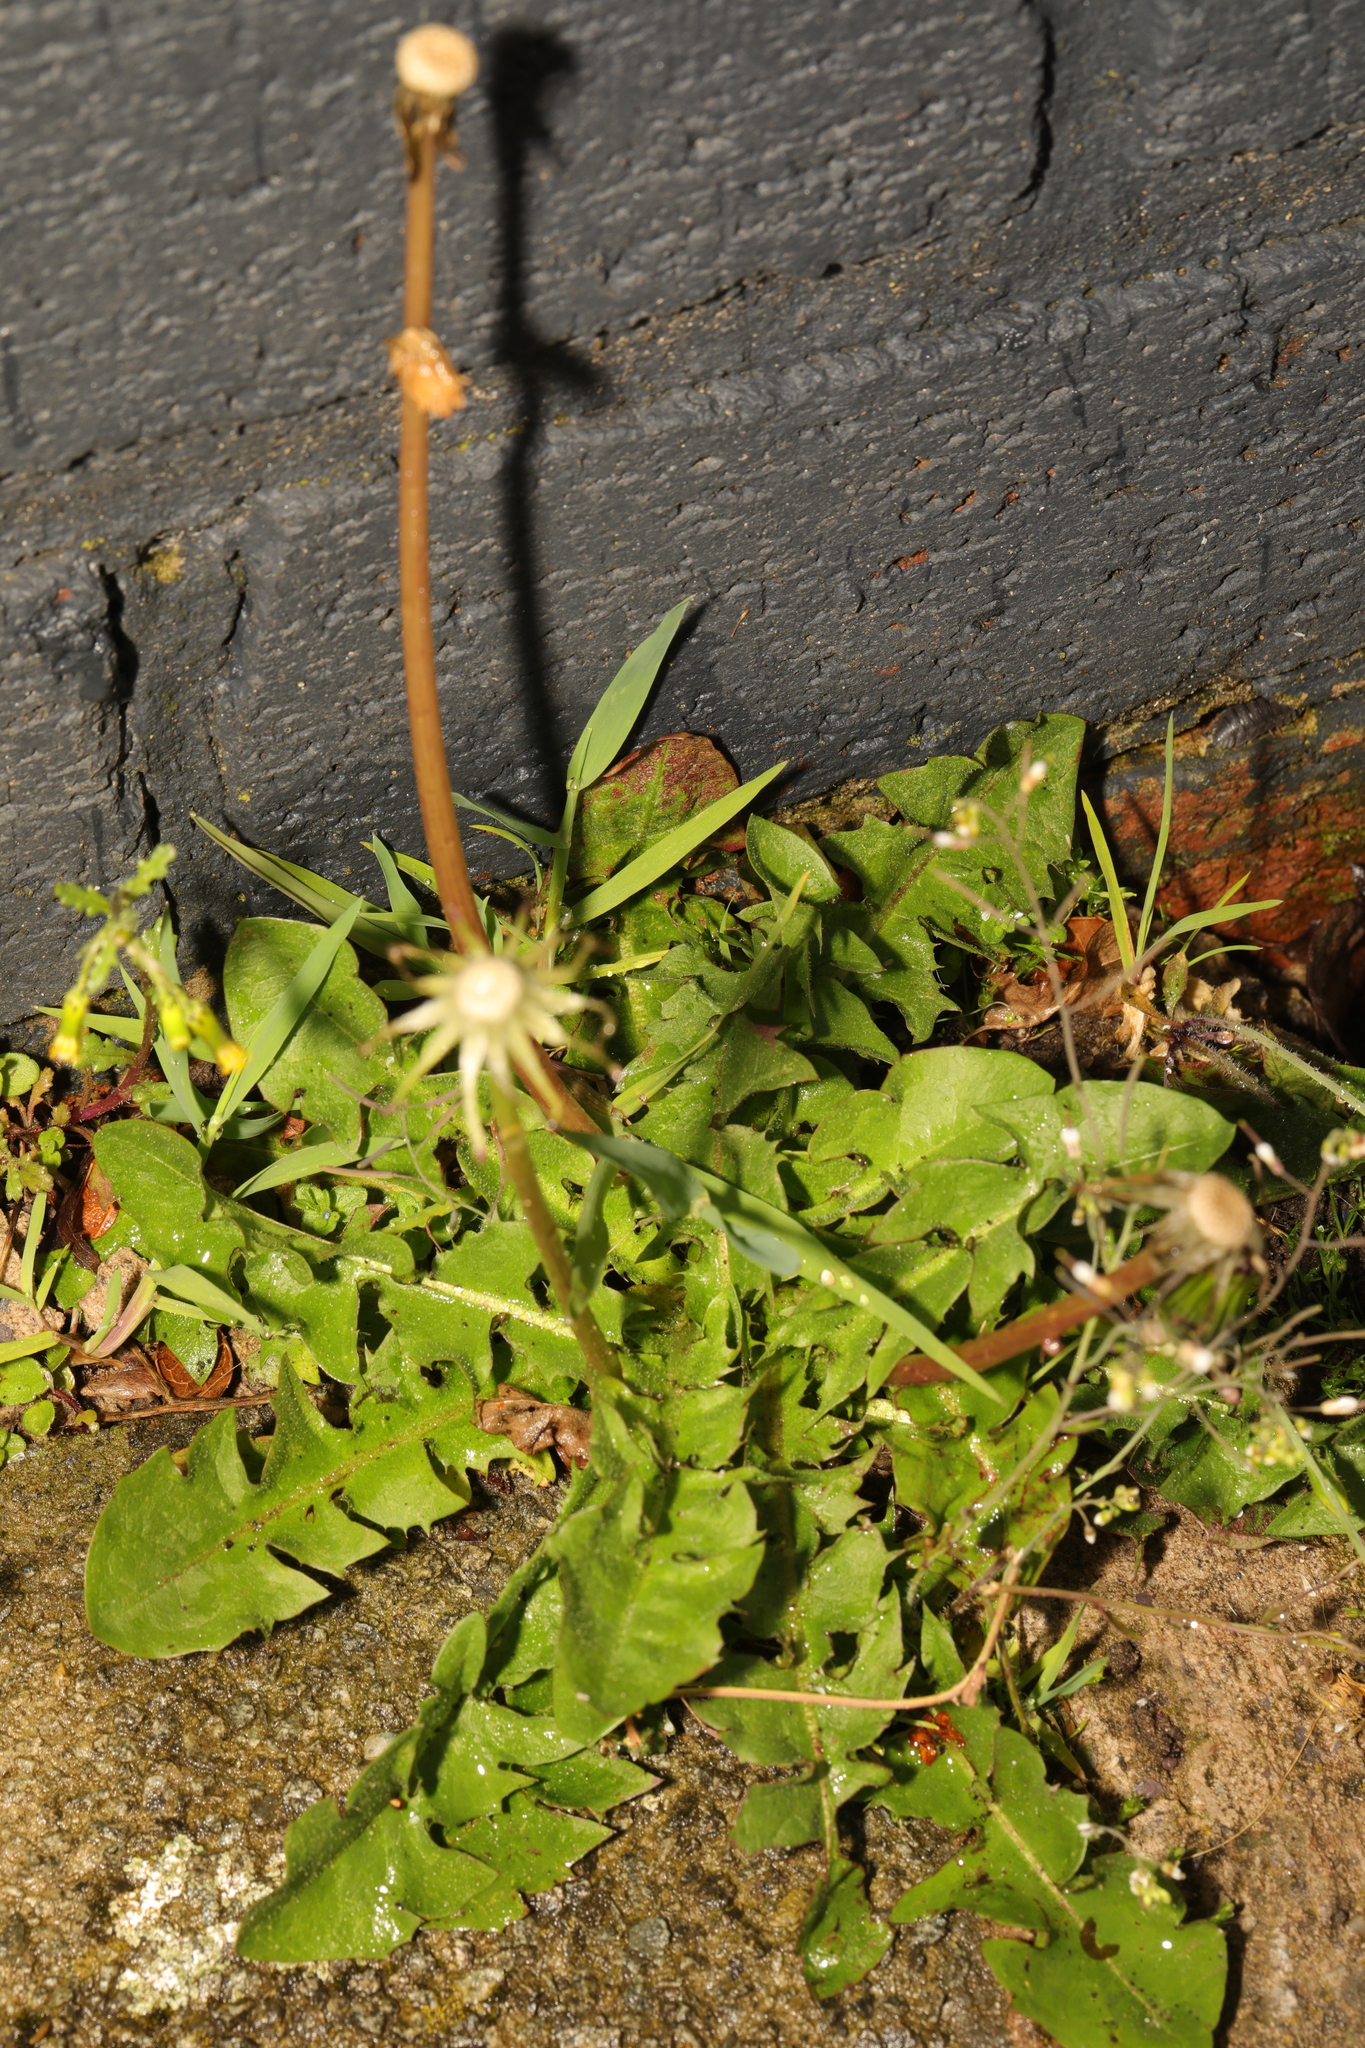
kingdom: Plantae
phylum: Tracheophyta
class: Magnoliopsida
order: Asterales
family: Asteraceae
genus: Taraxacum
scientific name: Taraxacum officinale
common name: Common dandelion
